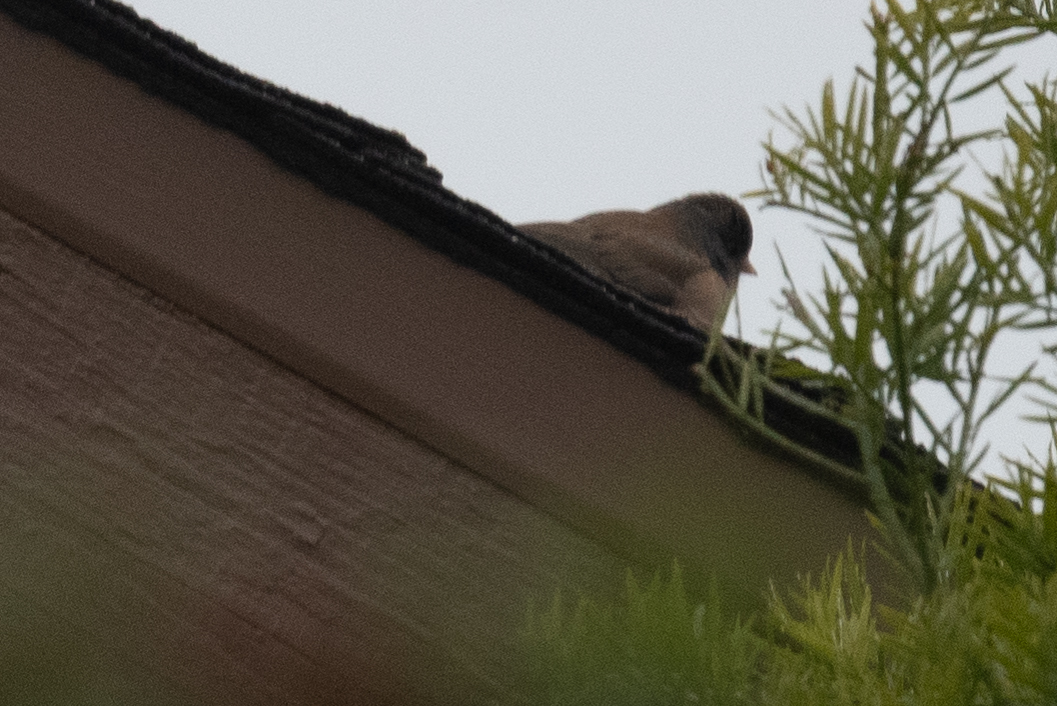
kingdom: Animalia
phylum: Chordata
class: Aves
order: Passeriformes
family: Passerellidae
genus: Junco
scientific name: Junco hyemalis
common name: Dark-eyed junco
